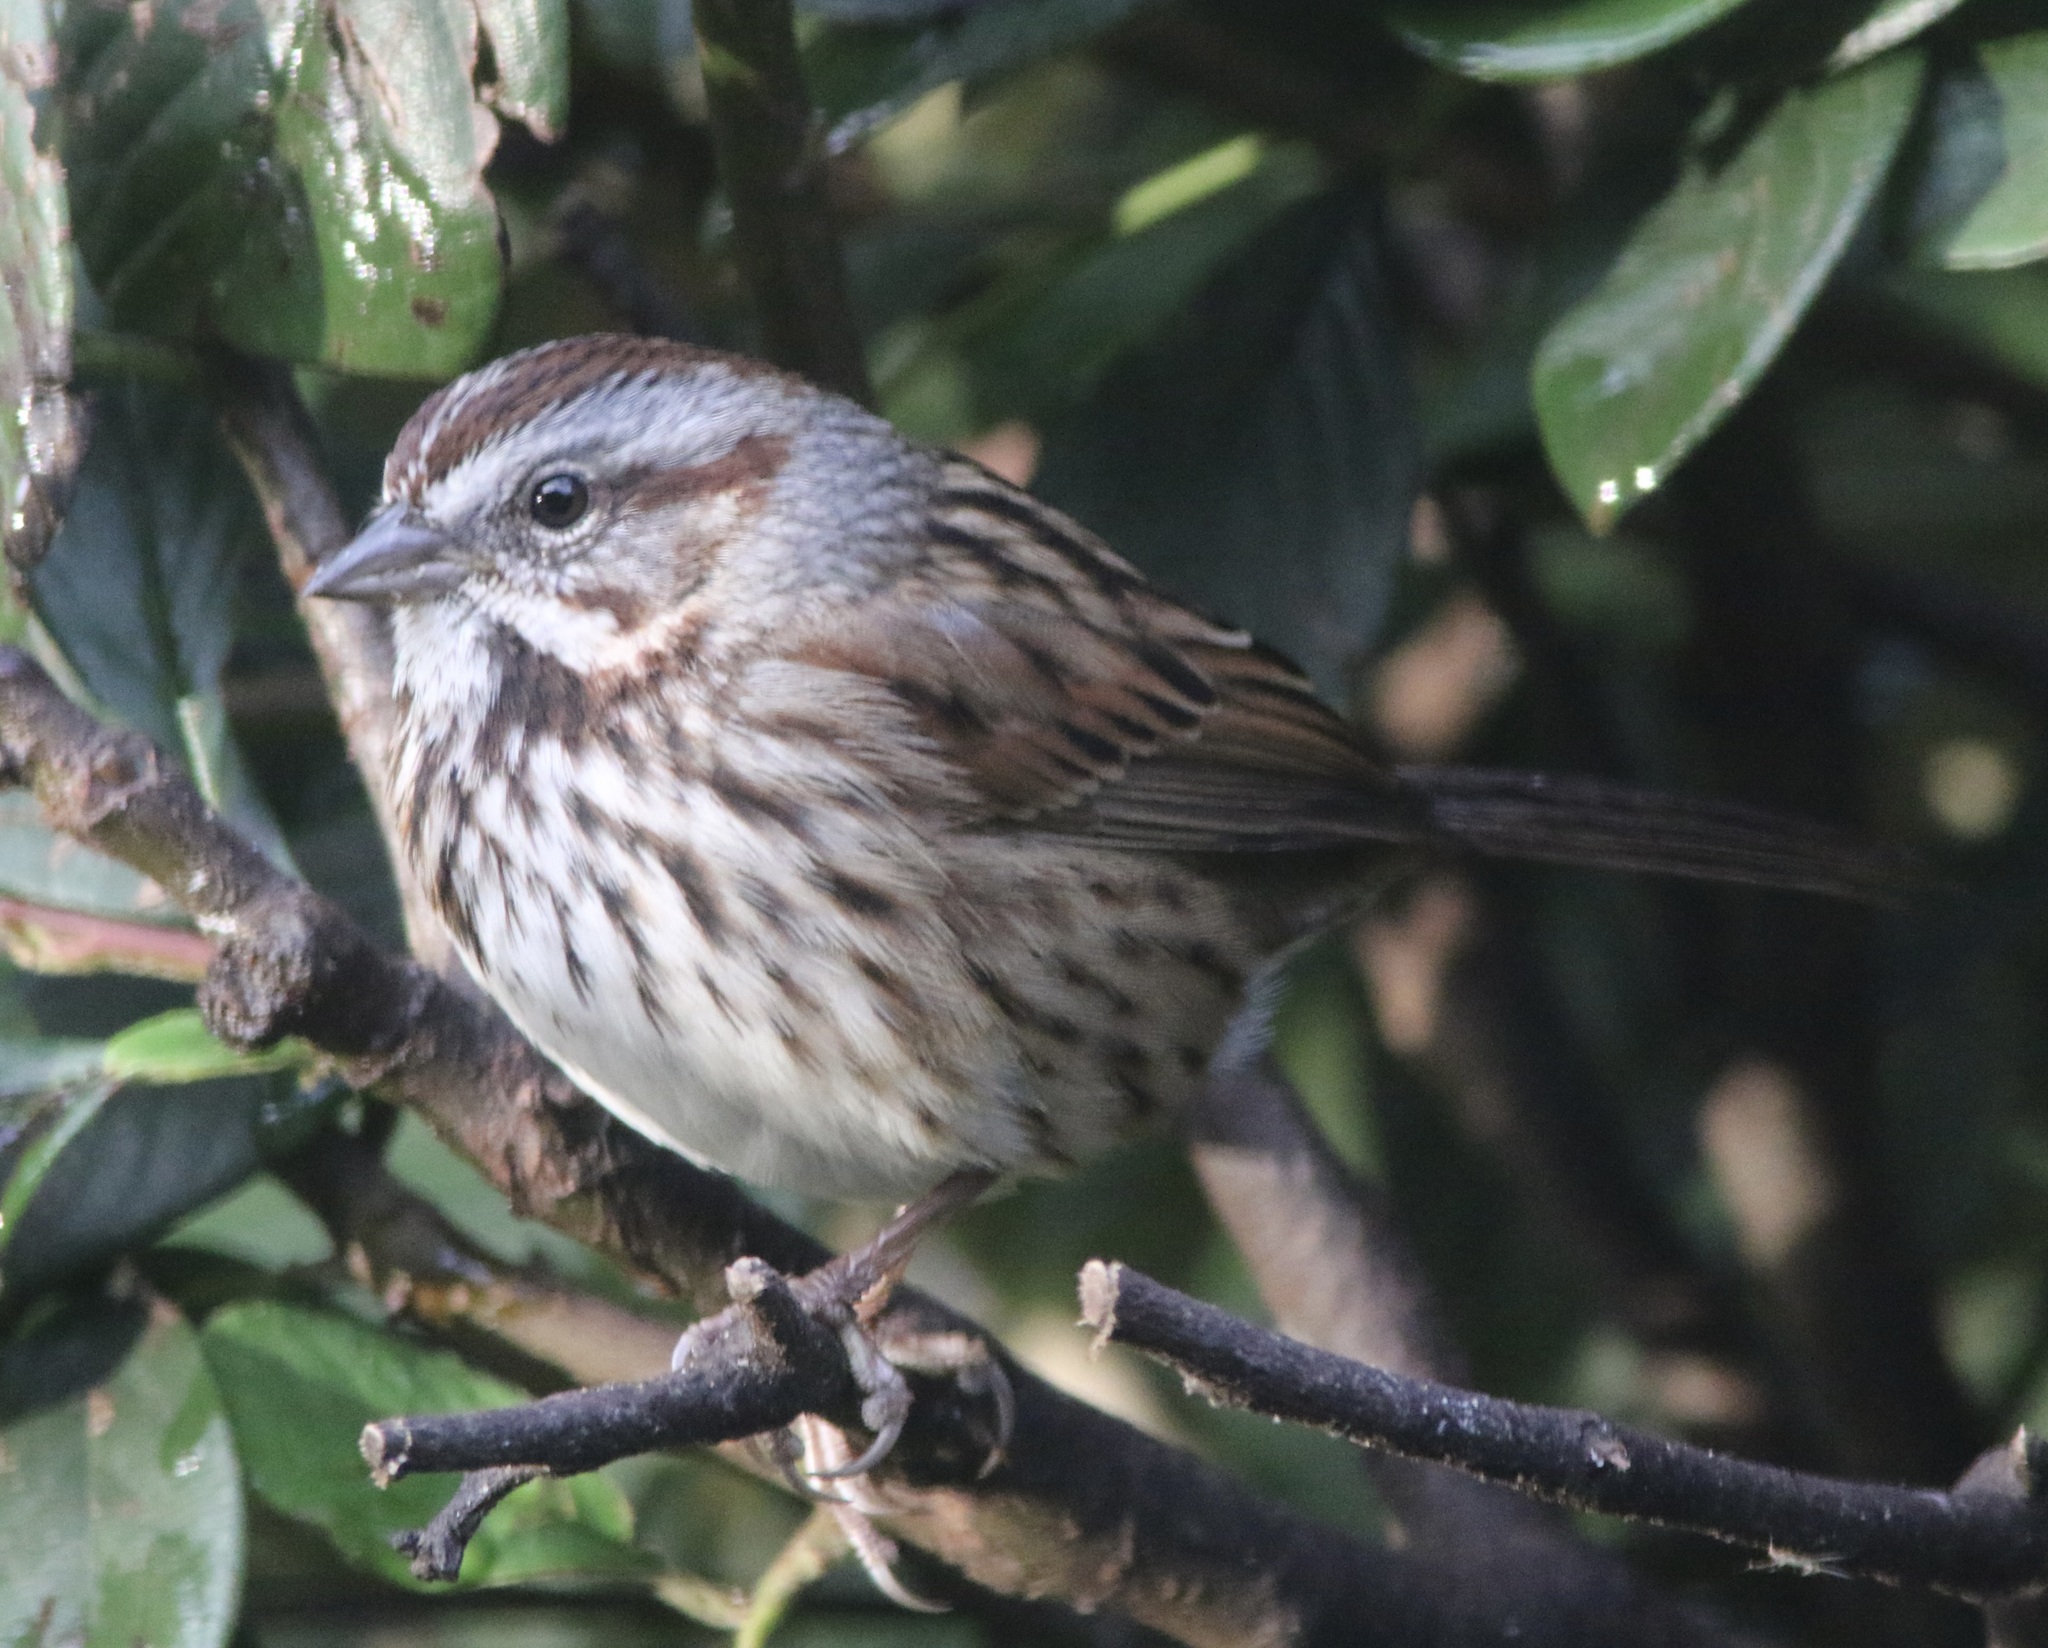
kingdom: Animalia
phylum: Chordata
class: Aves
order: Passeriformes
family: Passerellidae
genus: Melospiza
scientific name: Melospiza melodia
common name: Song sparrow
